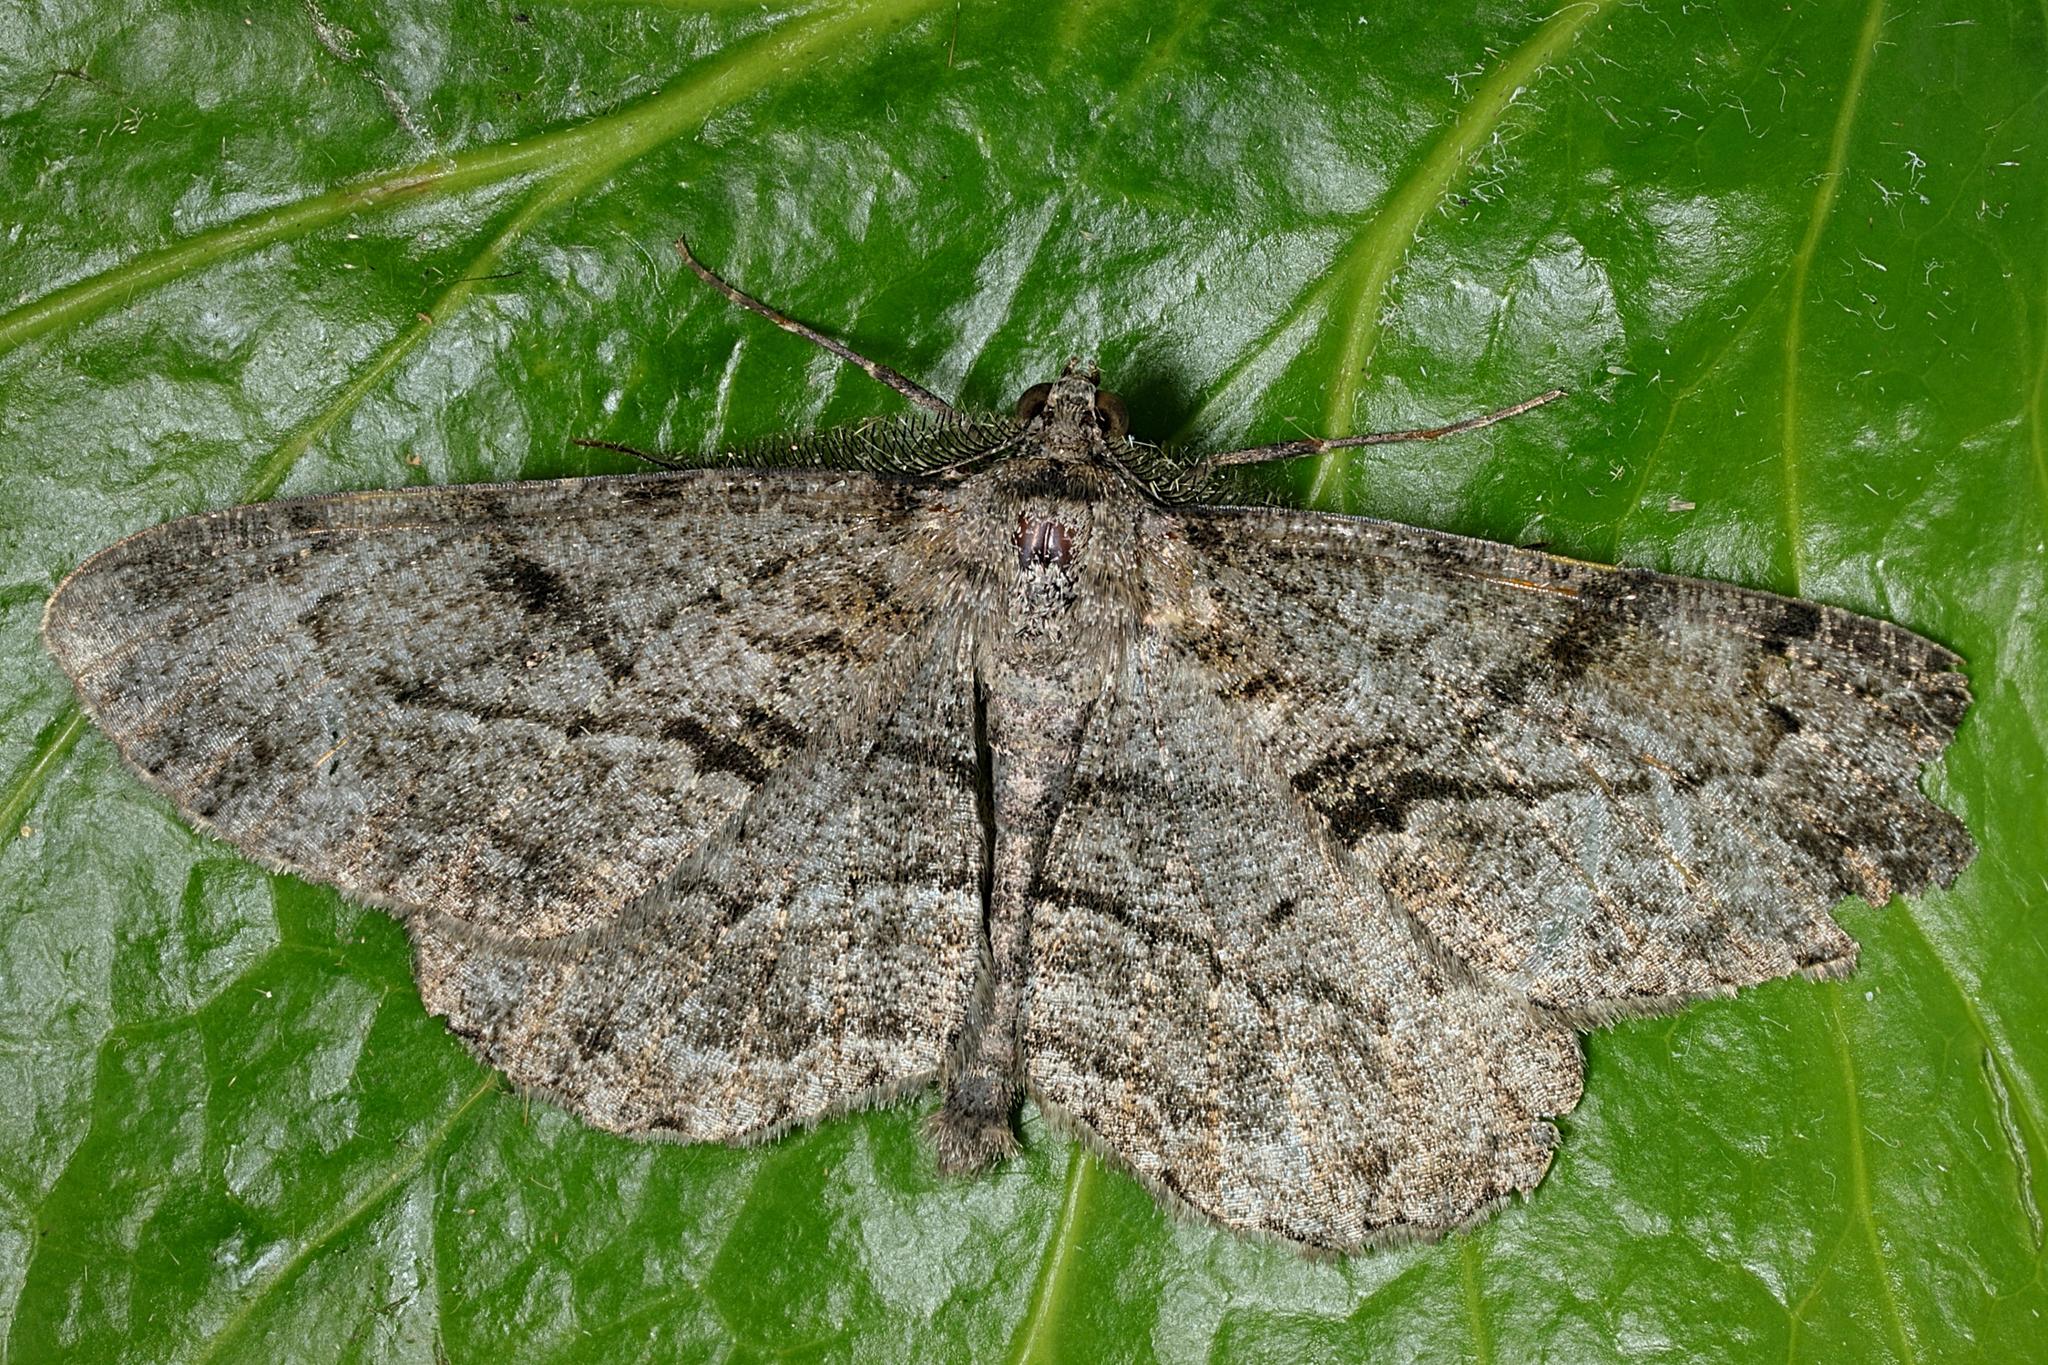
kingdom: Animalia
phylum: Arthropoda
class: Insecta
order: Lepidoptera
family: Geometridae
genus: Peribatodes
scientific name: Peribatodes rhomboidaria
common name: Willow beauty
